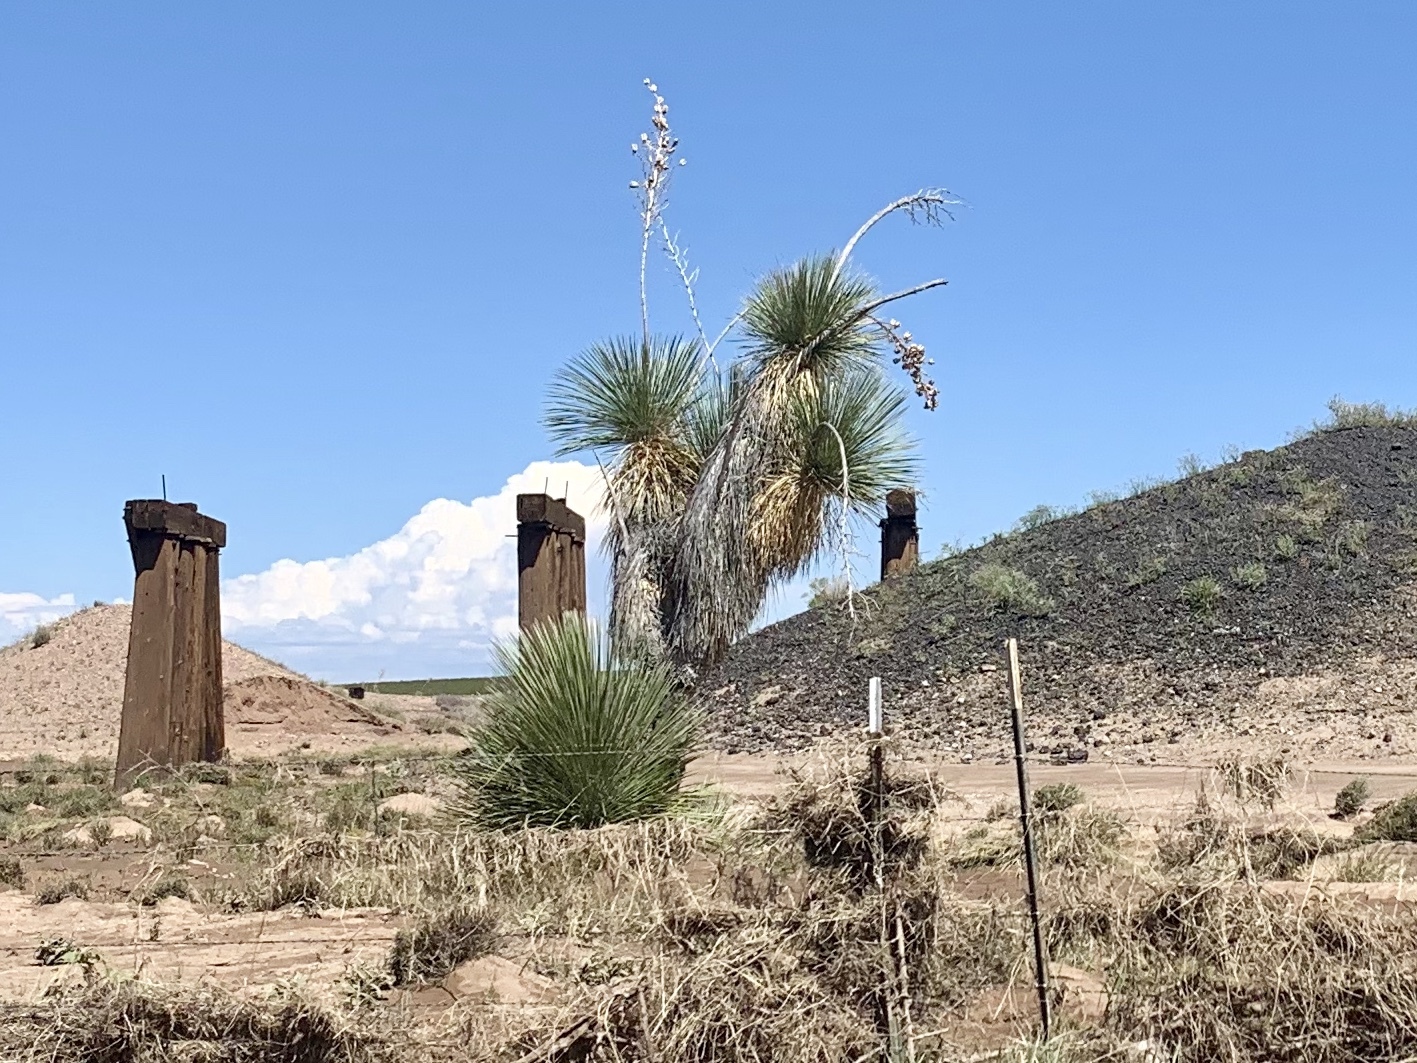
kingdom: Plantae
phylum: Tracheophyta
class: Liliopsida
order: Asparagales
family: Asparagaceae
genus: Yucca
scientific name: Yucca elata
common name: Palmella
